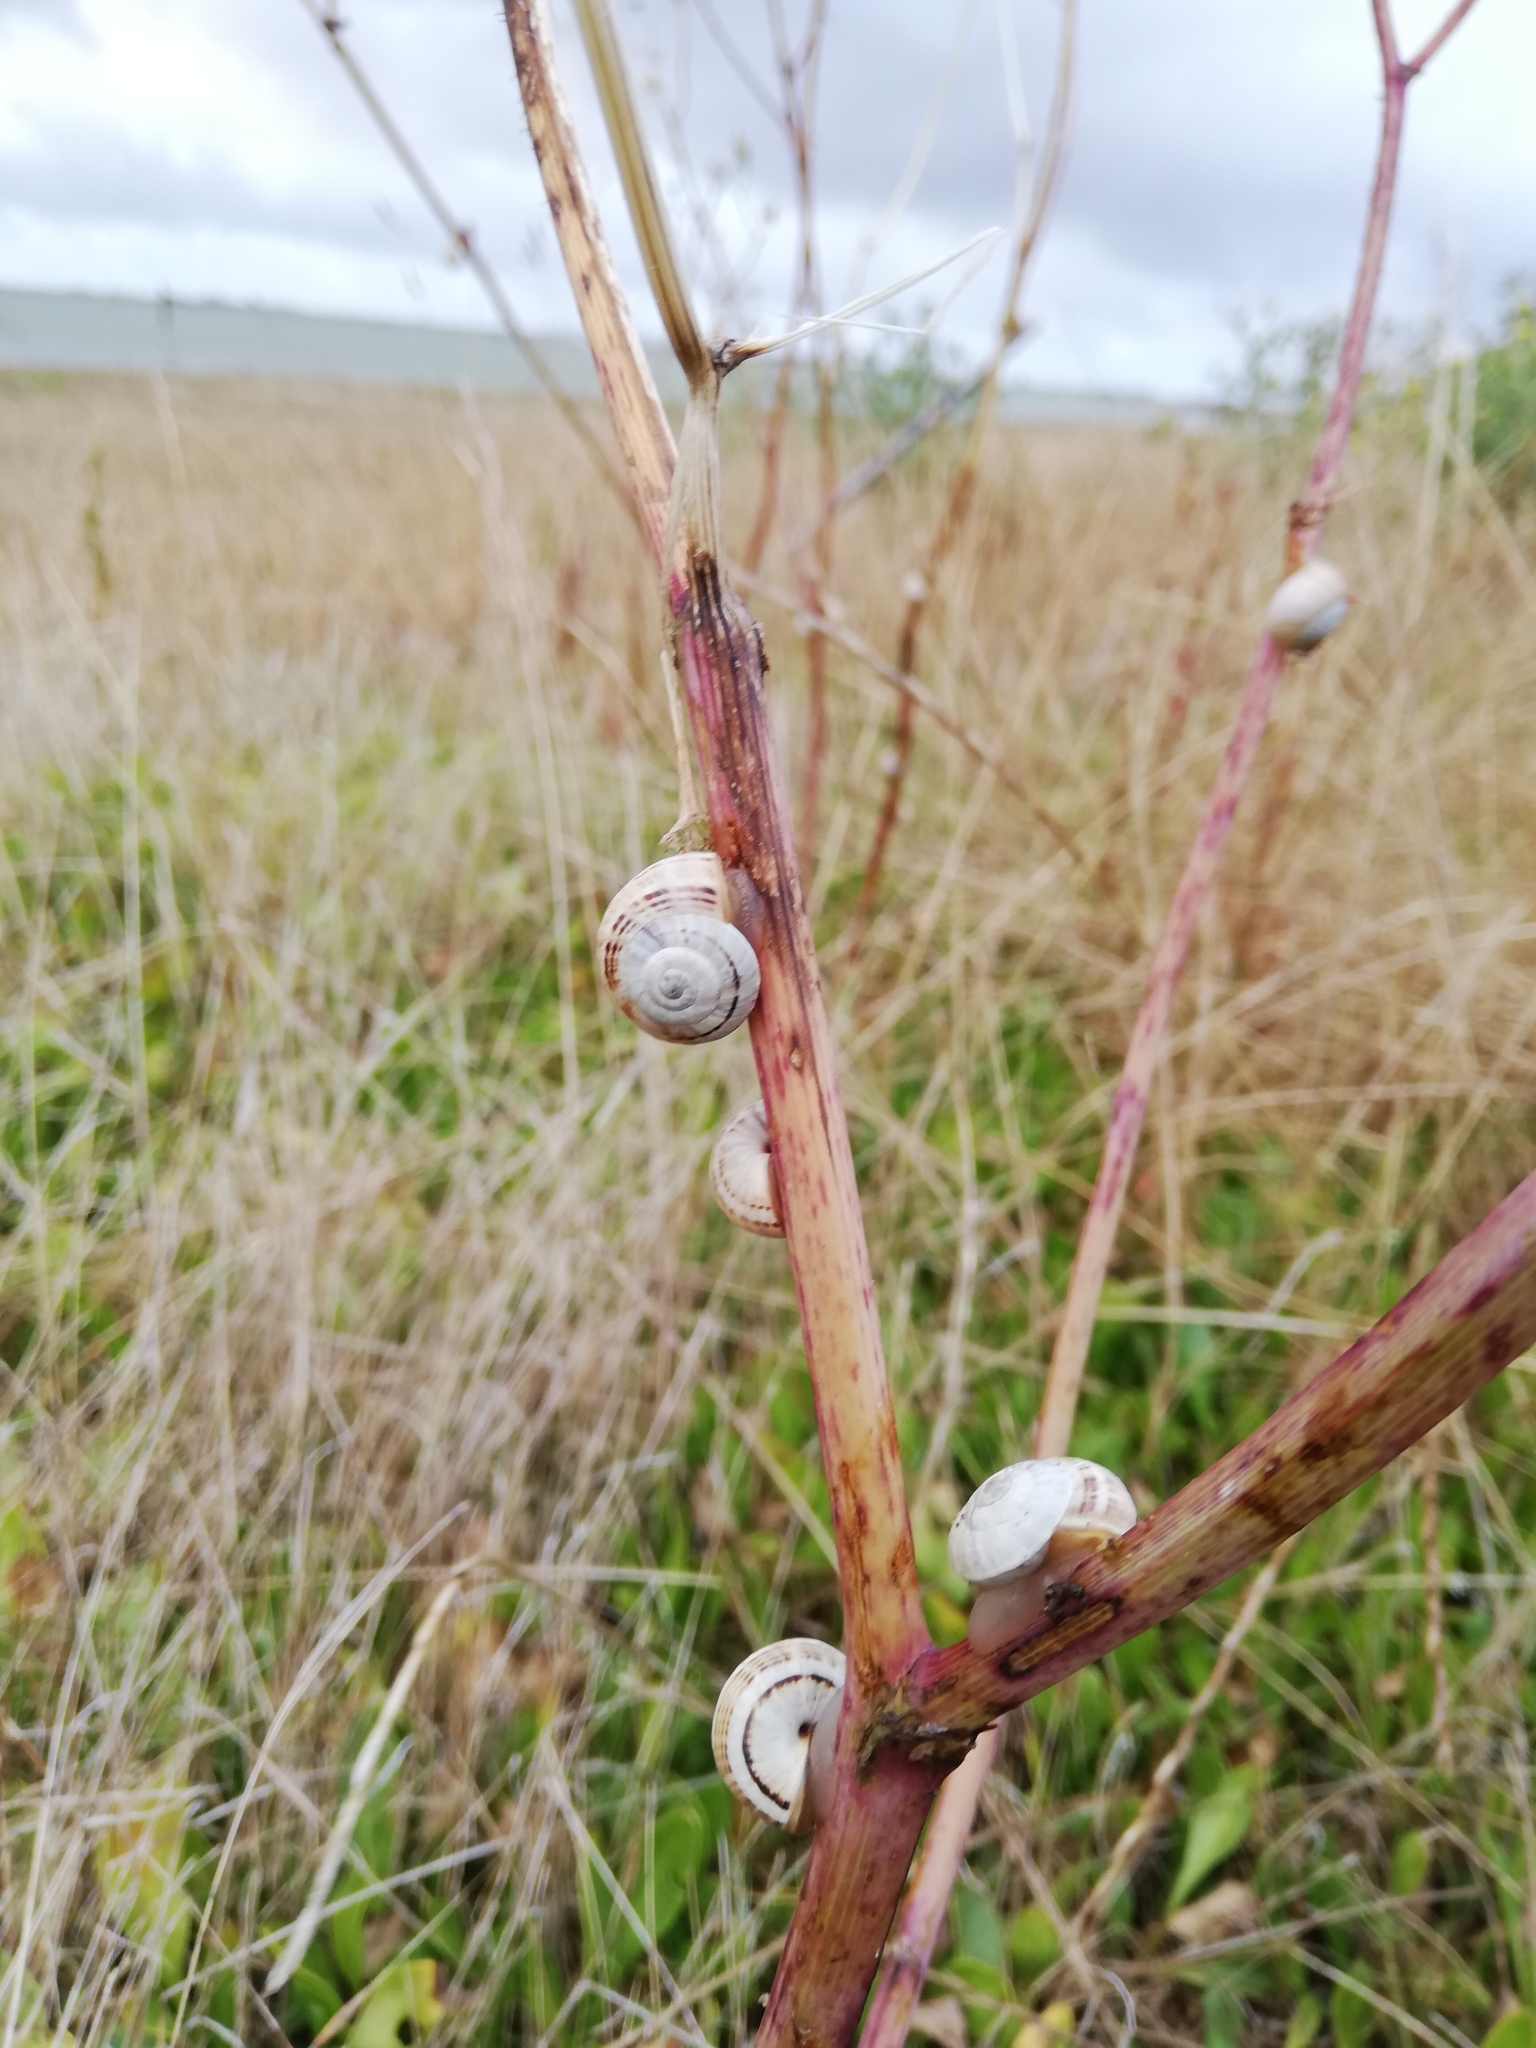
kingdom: Animalia
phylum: Mollusca
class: Gastropoda
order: Stylommatophora
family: Helicidae
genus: Theba
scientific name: Theba pisana
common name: White snail
